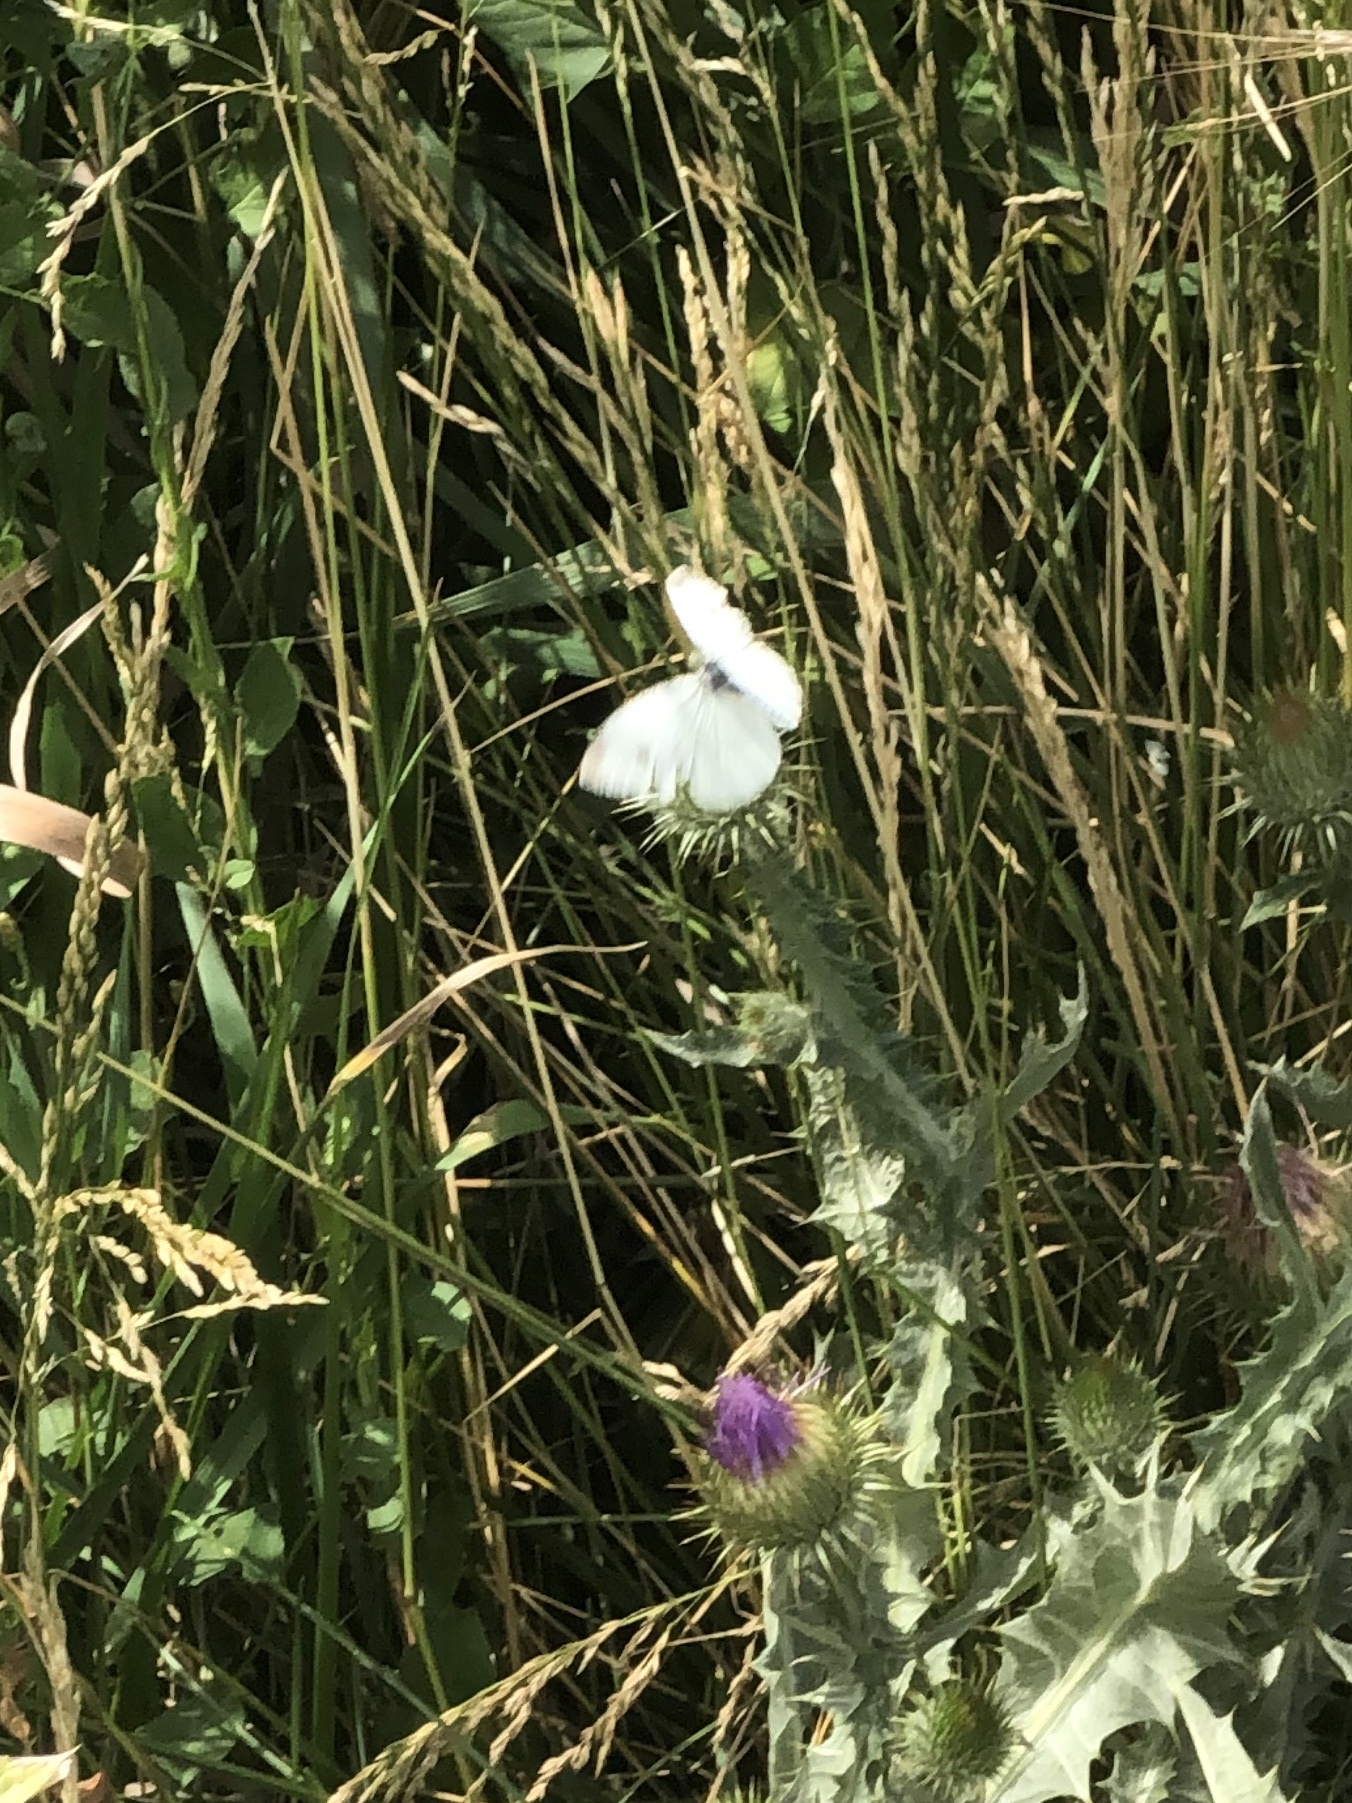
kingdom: Animalia
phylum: Arthropoda
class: Insecta
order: Lepidoptera
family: Pieridae
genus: Pieris
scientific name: Pieris rapae
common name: Small white
